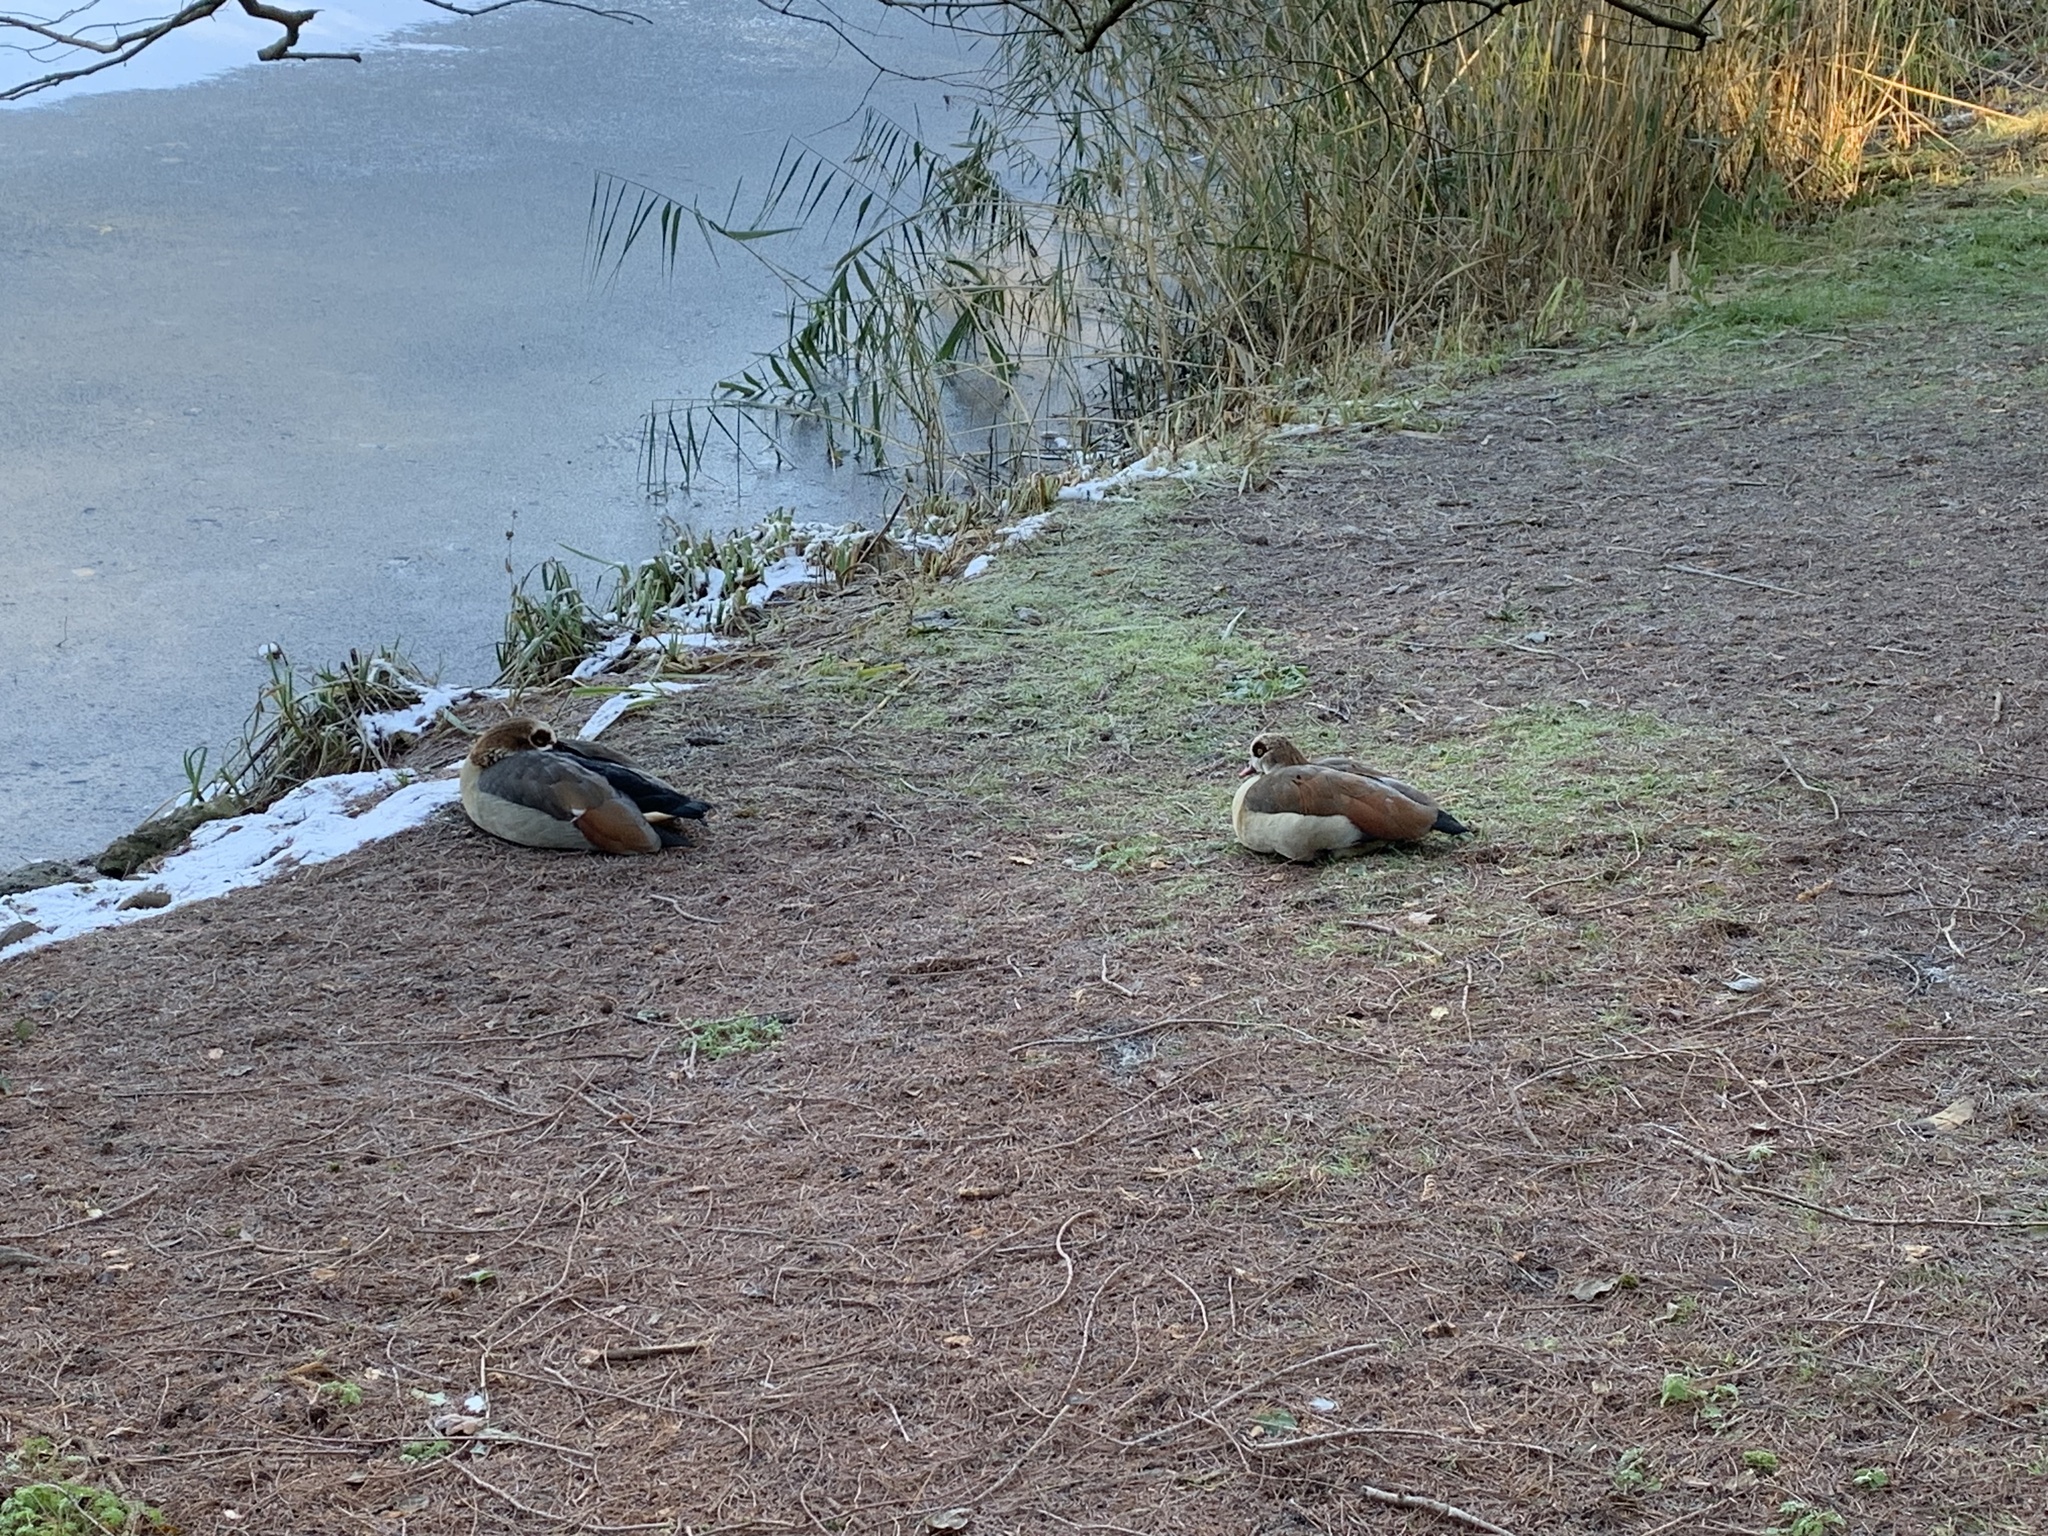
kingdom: Animalia
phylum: Chordata
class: Aves
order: Anseriformes
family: Anatidae
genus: Alopochen
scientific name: Alopochen aegyptiaca
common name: Egyptian goose
